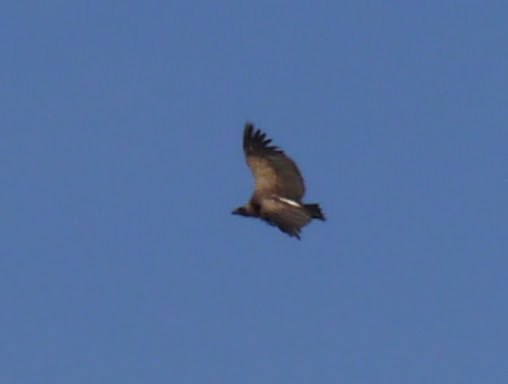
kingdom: Animalia
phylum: Chordata
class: Aves
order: Accipitriformes
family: Accipitridae
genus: Gyps
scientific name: Gyps africanus
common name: White-backed vulture
